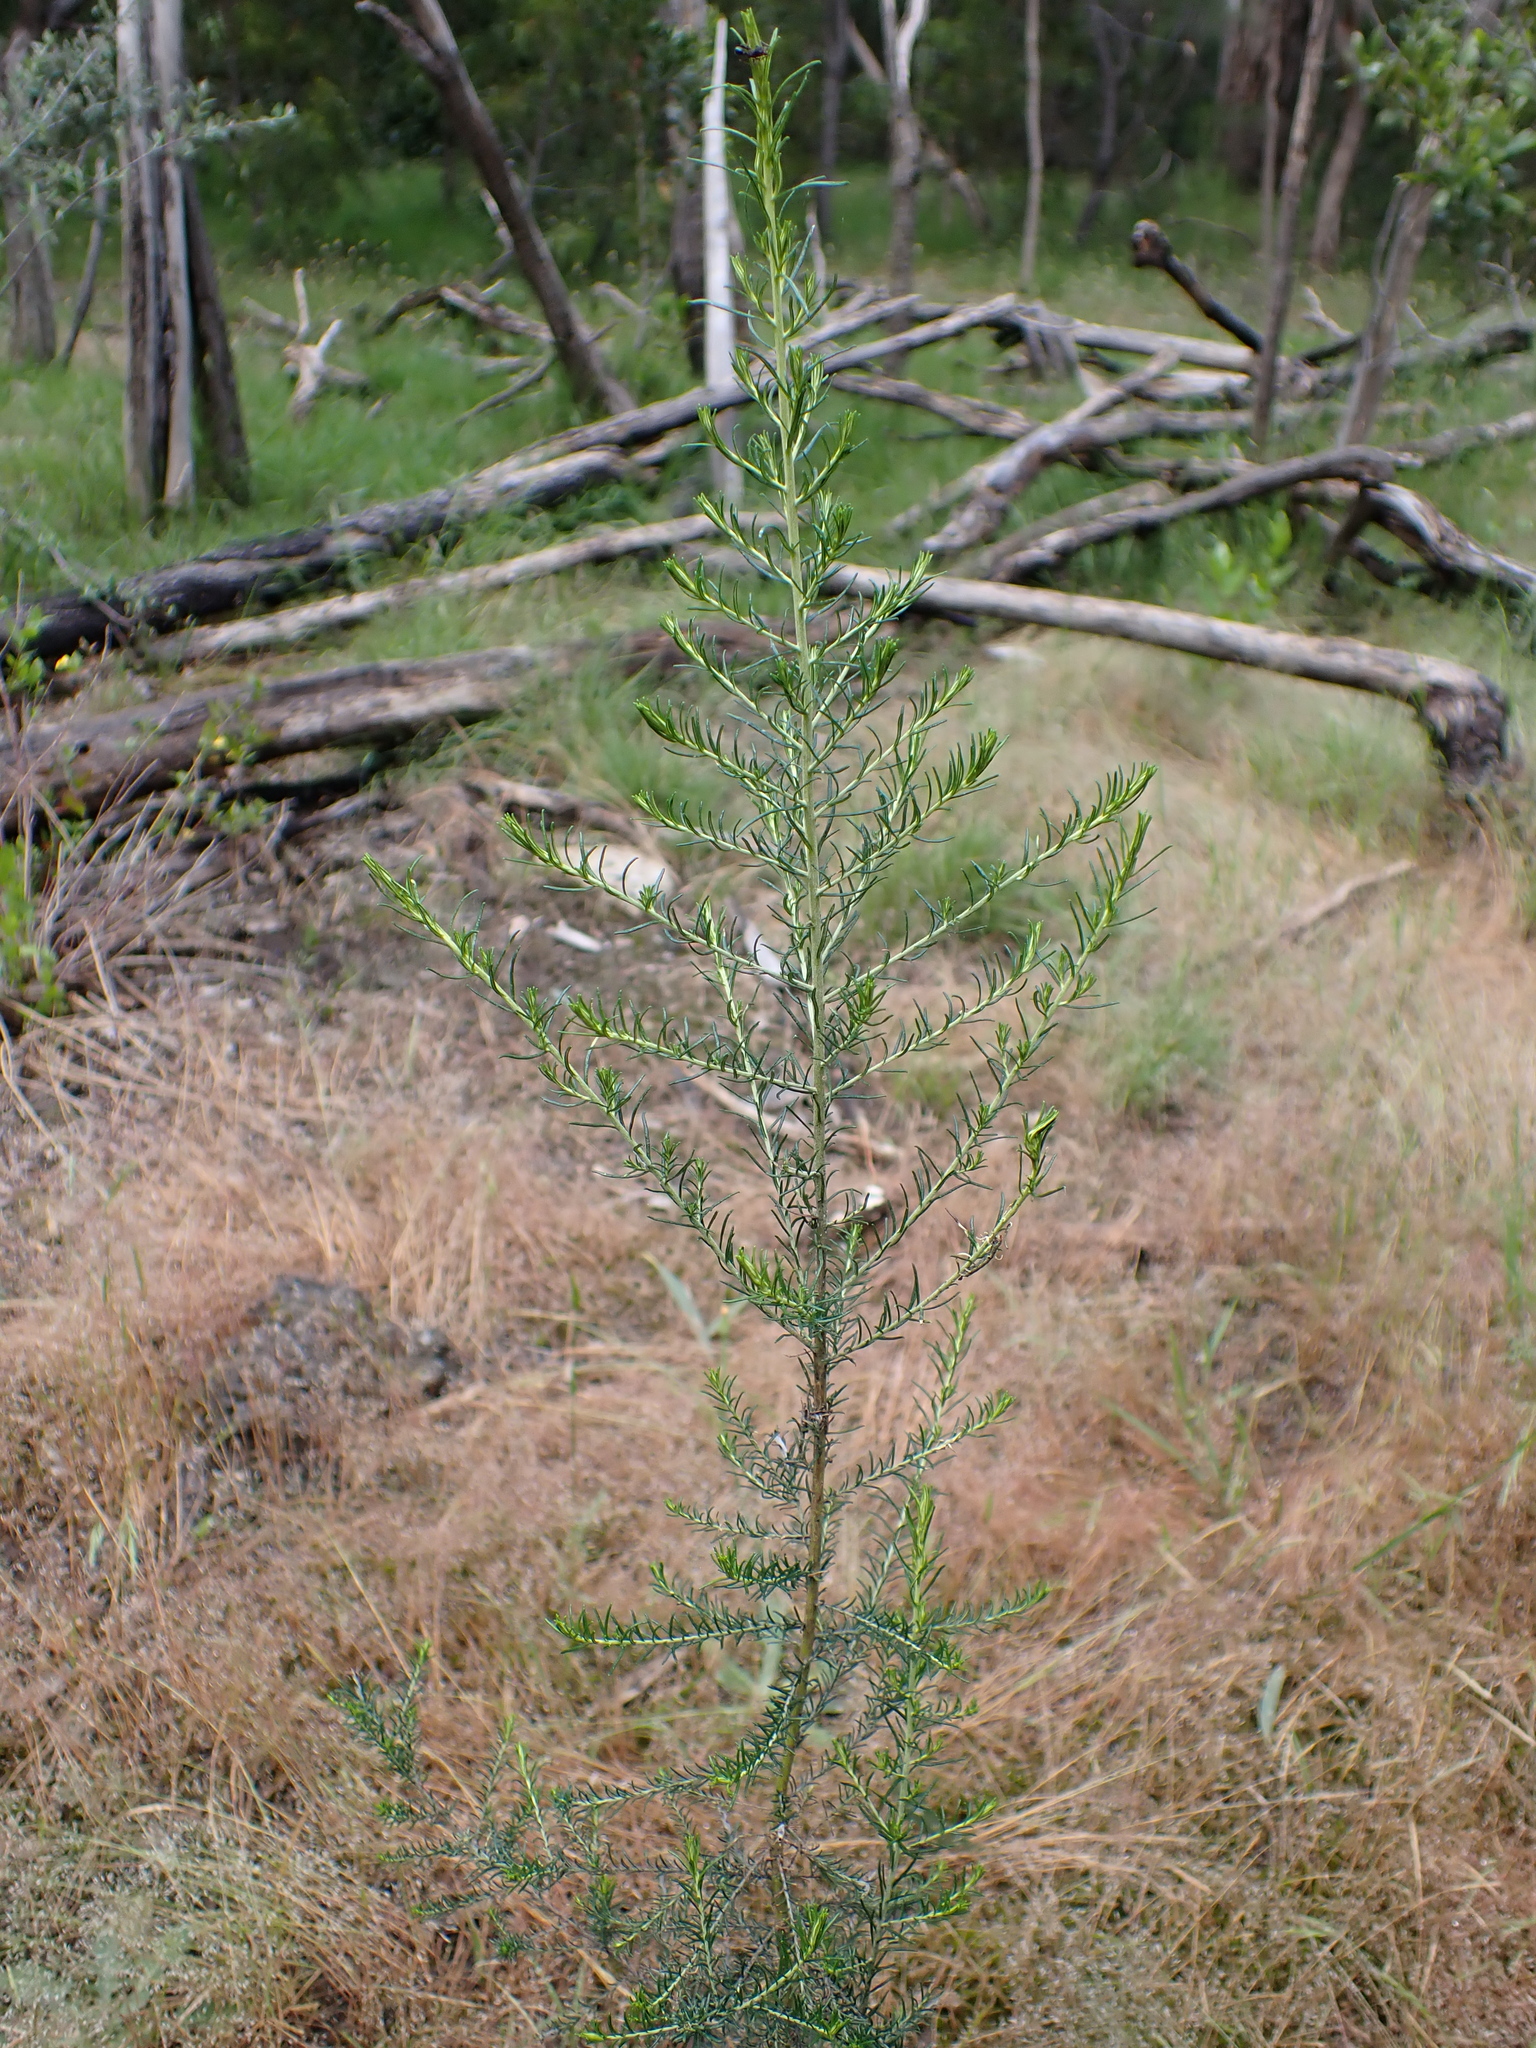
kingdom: Plantae
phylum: Tracheophyta
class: Magnoliopsida
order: Asterales
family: Asteraceae
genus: Cassinia
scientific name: Cassinia sifton
